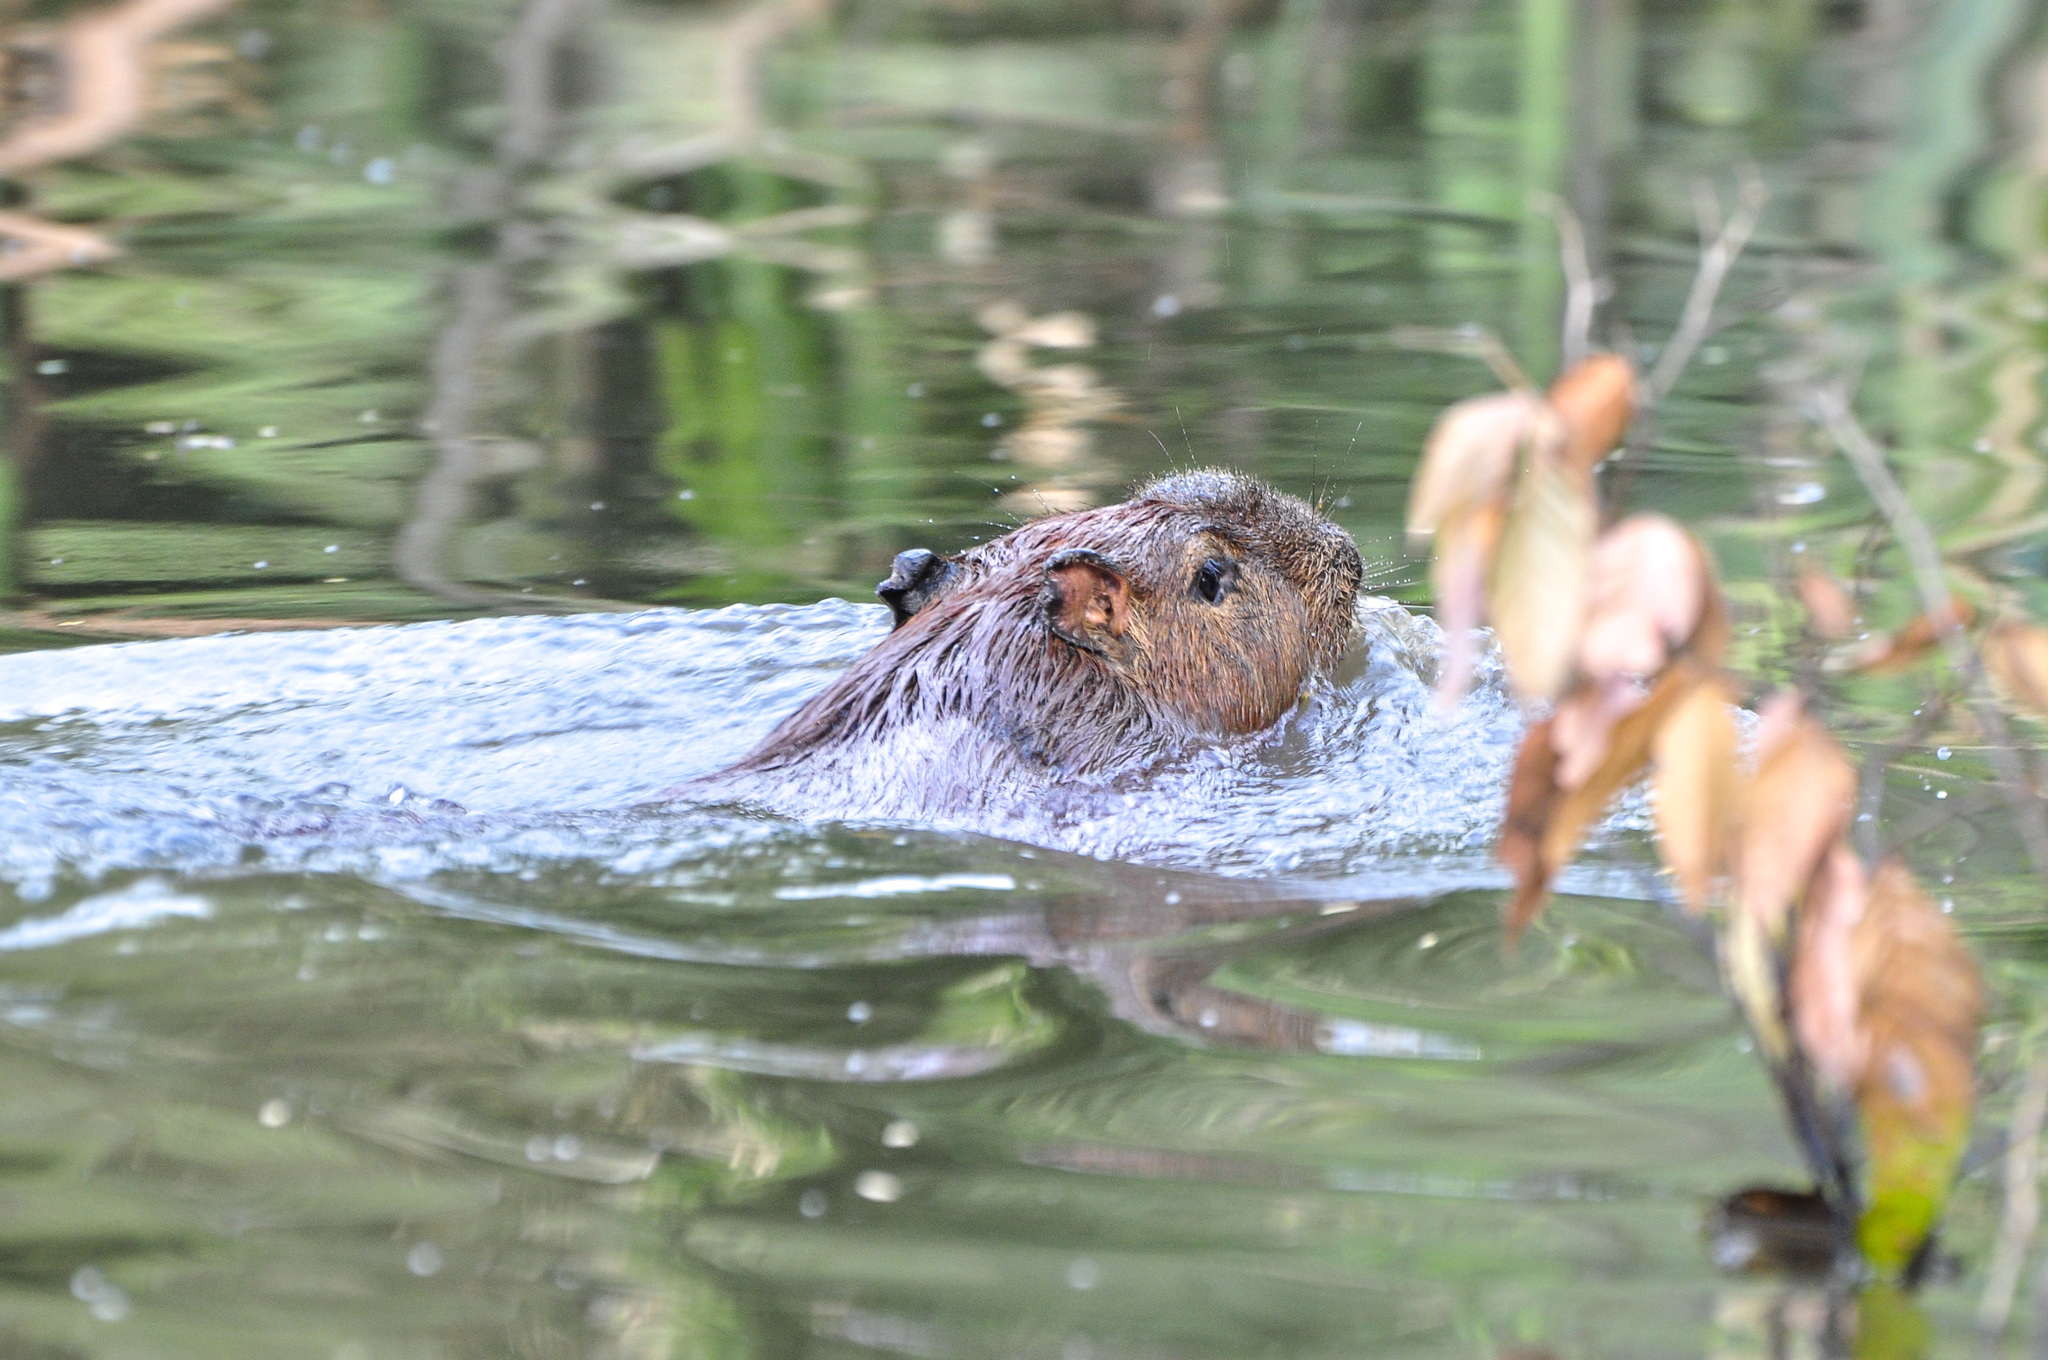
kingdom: Animalia
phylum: Chordata
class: Mammalia
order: Rodentia
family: Caviidae
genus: Hydrochoerus
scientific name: Hydrochoerus hydrochaeris
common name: Capybara
